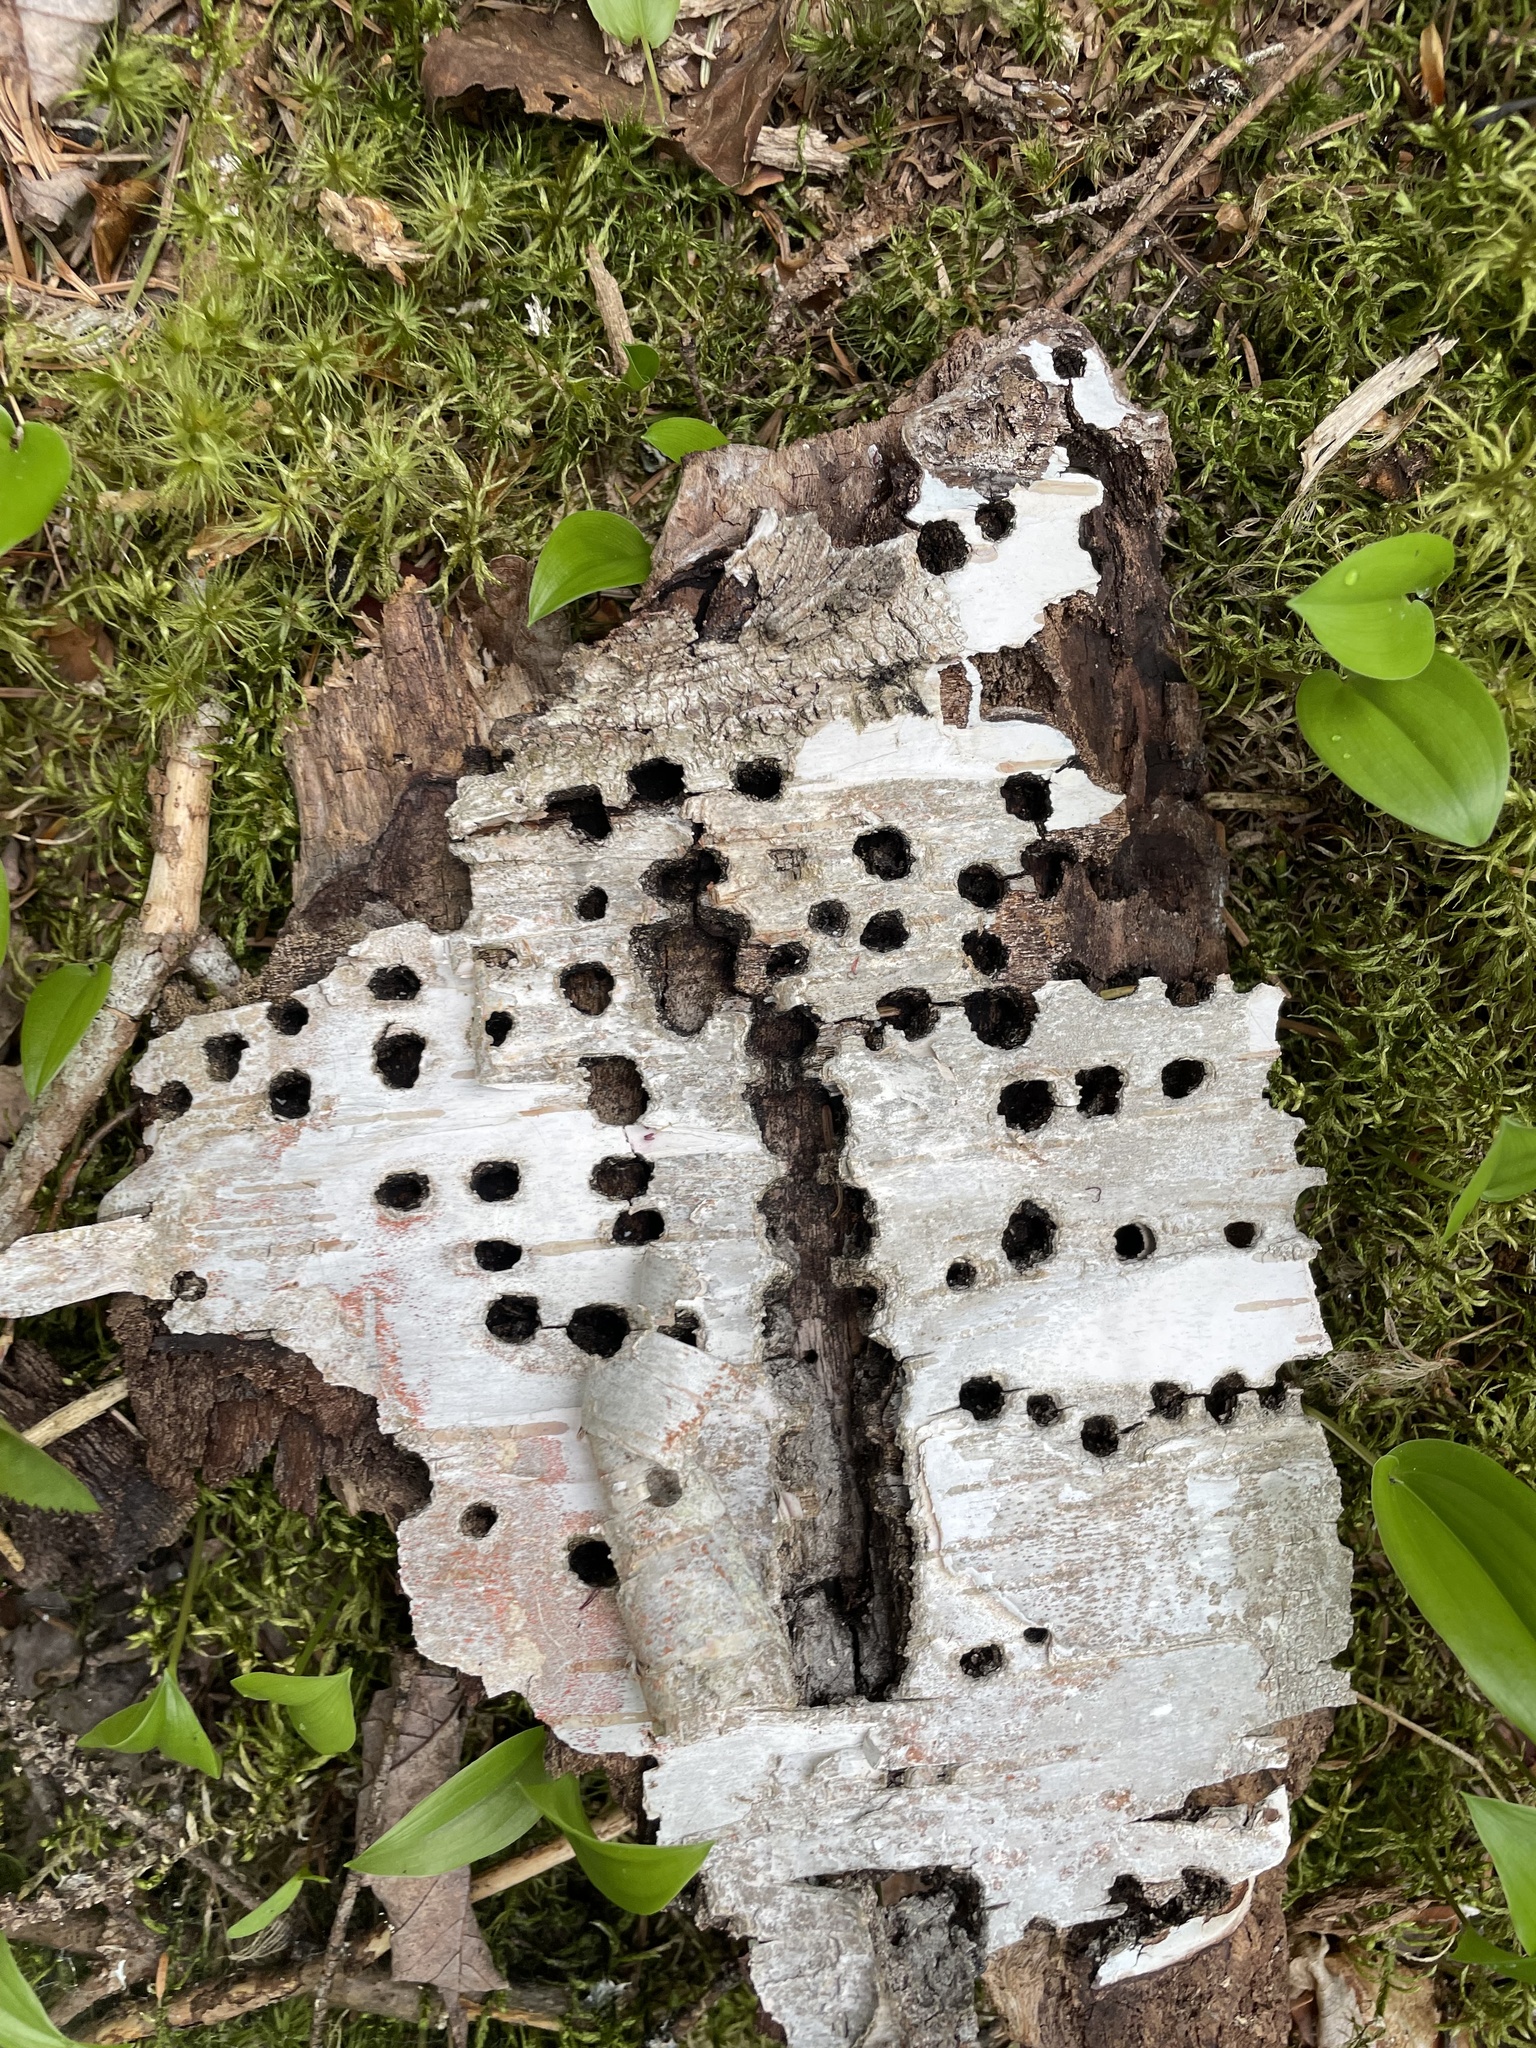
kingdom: Animalia
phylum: Chordata
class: Aves
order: Piciformes
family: Picidae
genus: Sphyrapicus
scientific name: Sphyrapicus varius
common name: Yellow-bellied sapsucker
